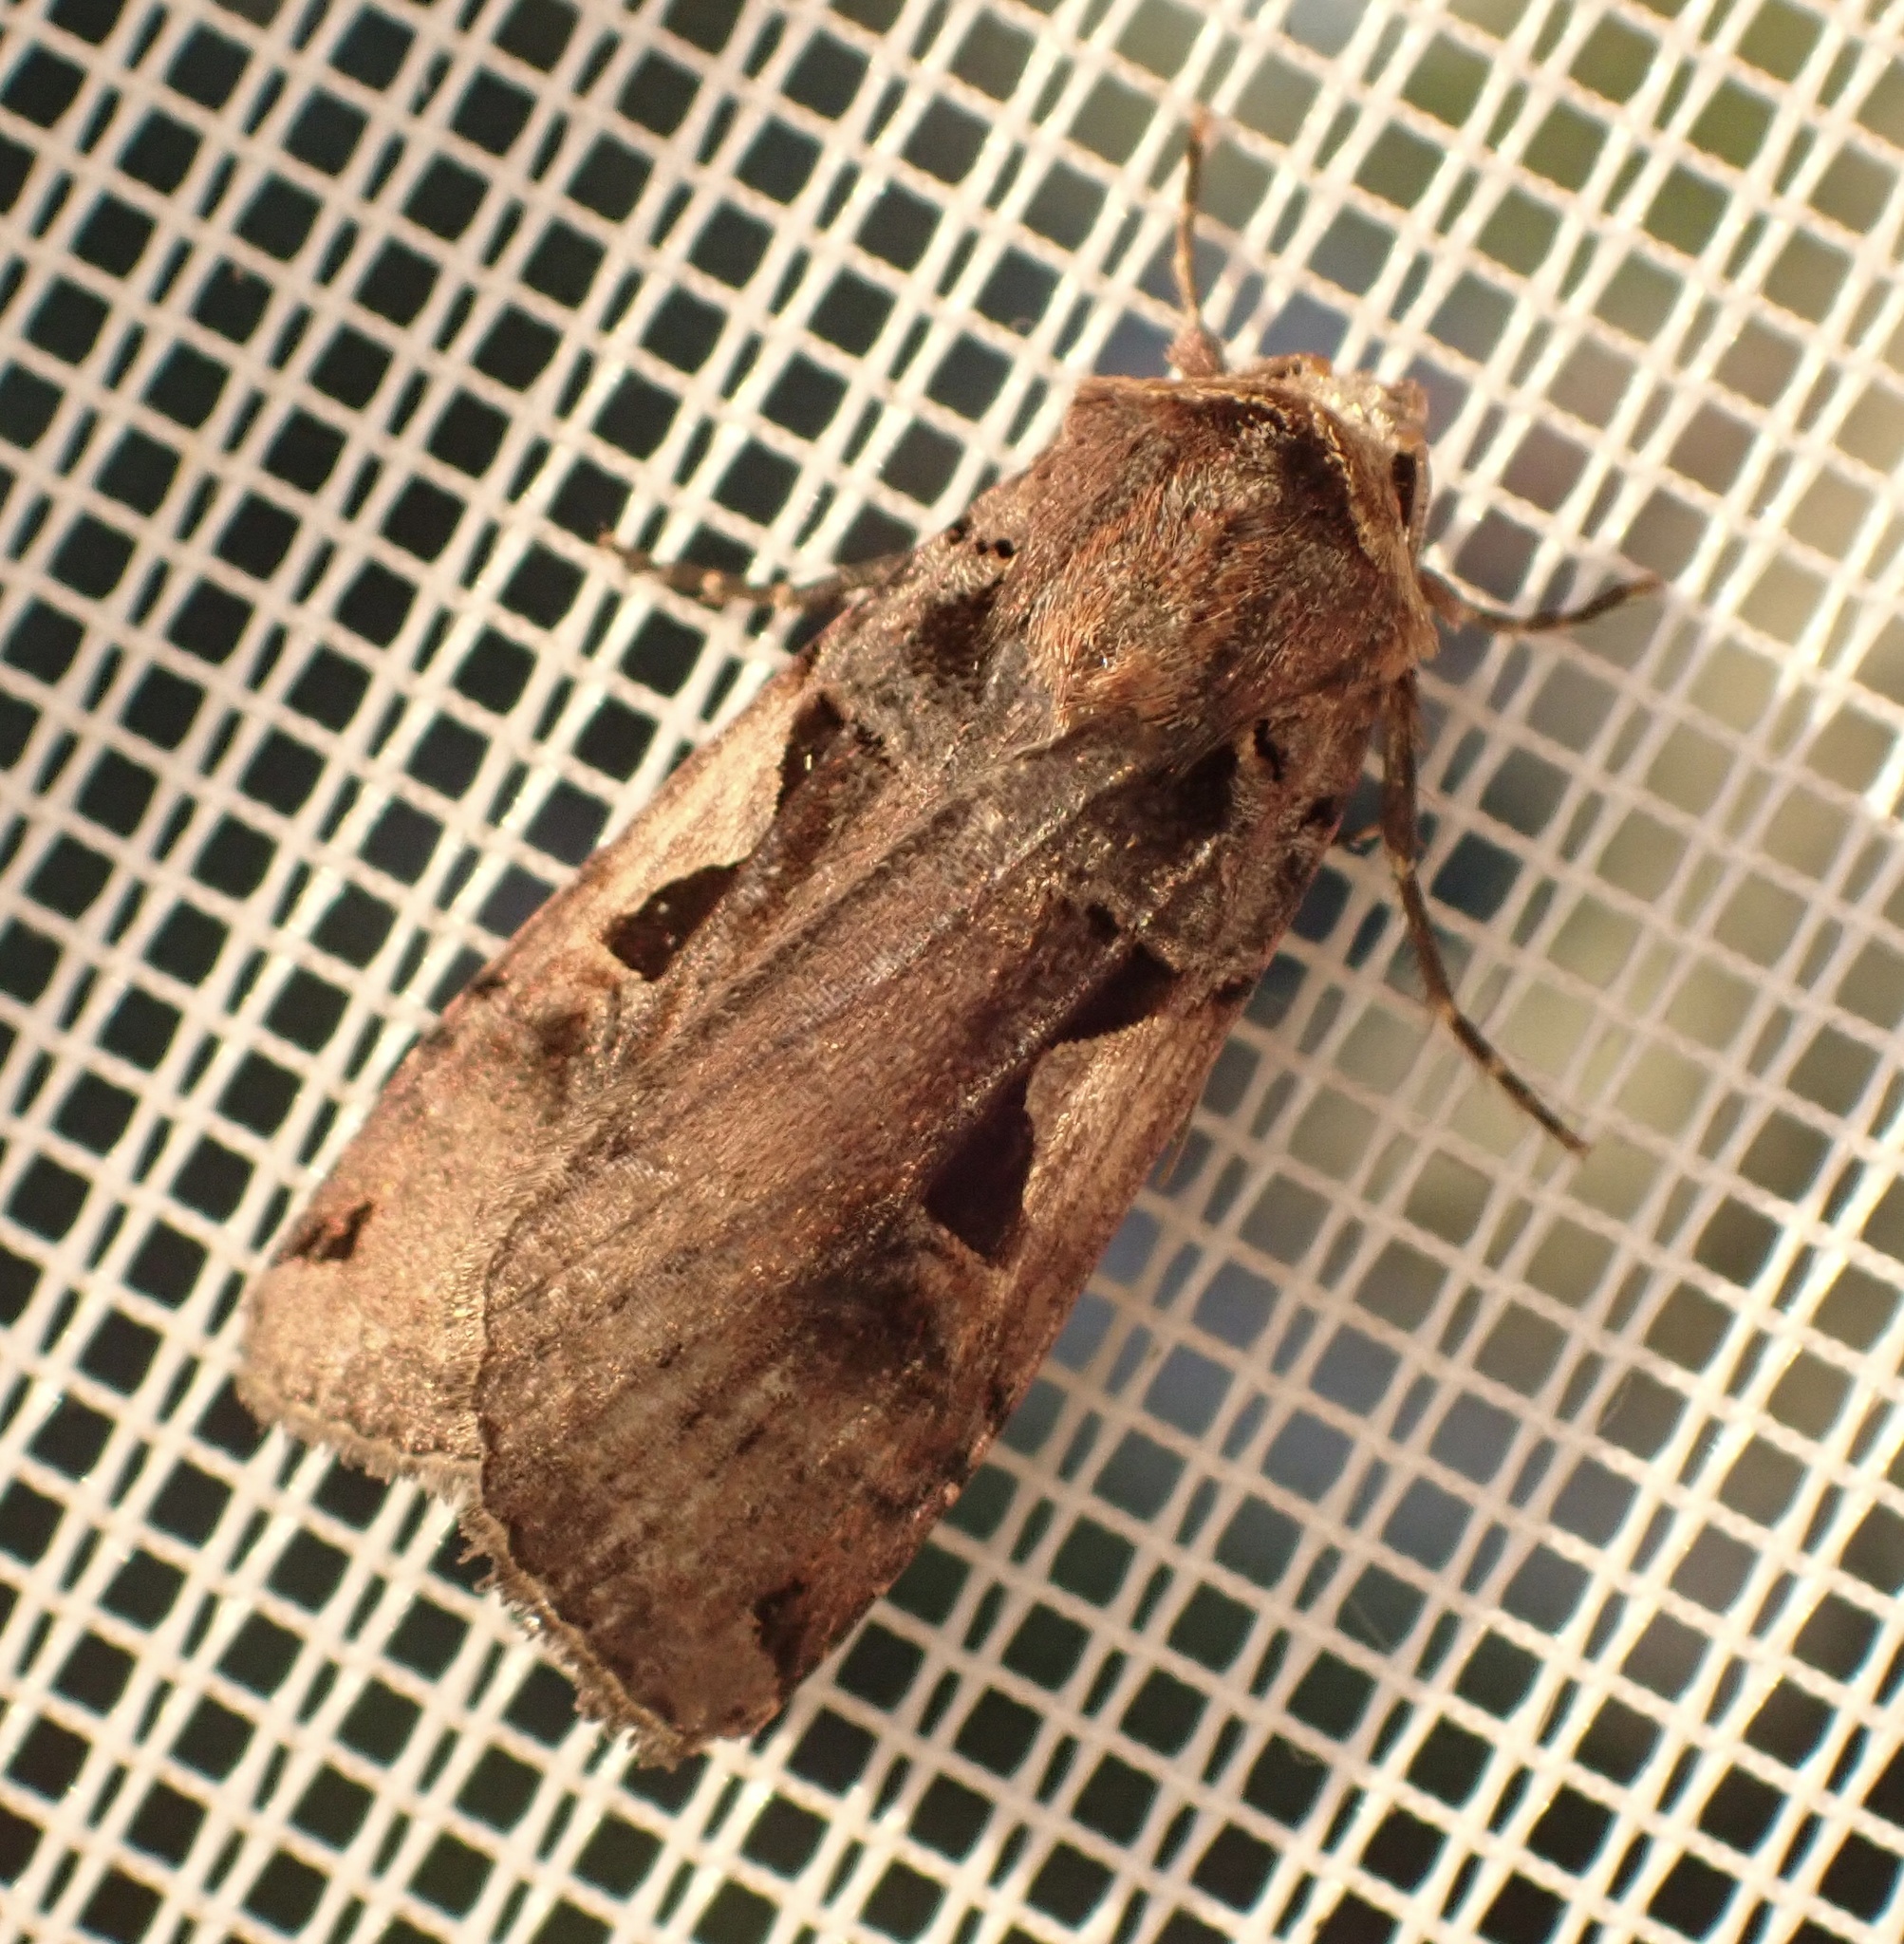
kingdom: Animalia
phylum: Arthropoda
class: Insecta
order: Lepidoptera
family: Noctuidae
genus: Xestia
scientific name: Xestia c-nigrum
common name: Setaceous hebrew character
